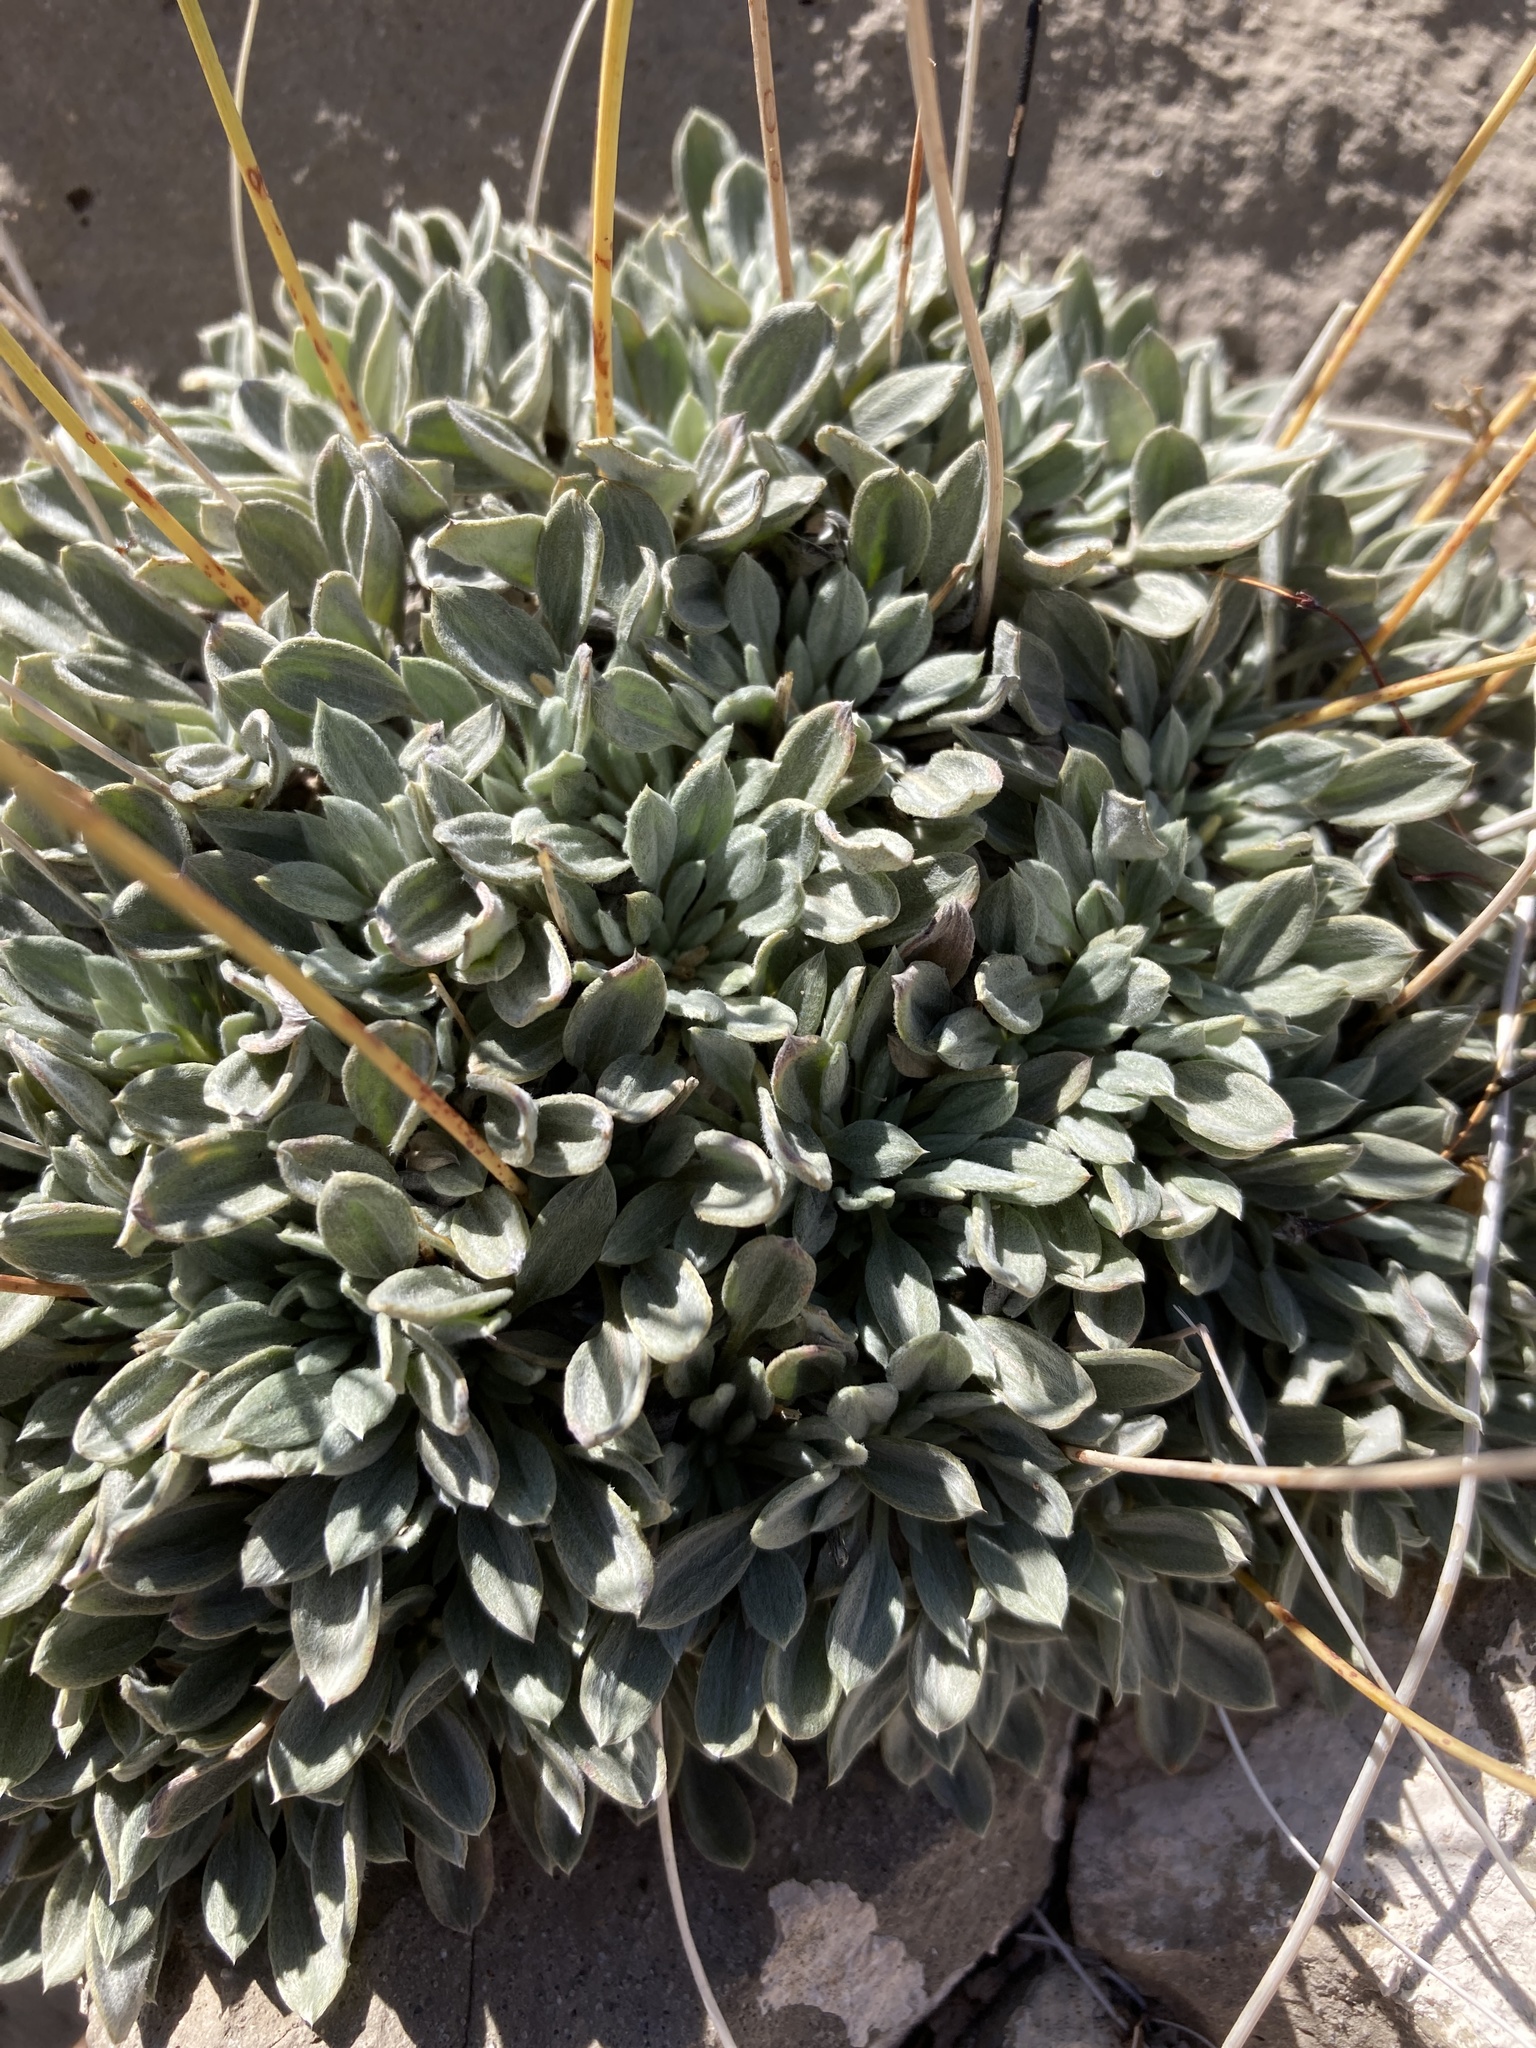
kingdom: Plantae
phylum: Tracheophyta
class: Magnoliopsida
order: Caryophyllales
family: Polygonaceae
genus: Eriogonum
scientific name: Eriogonum havardii
